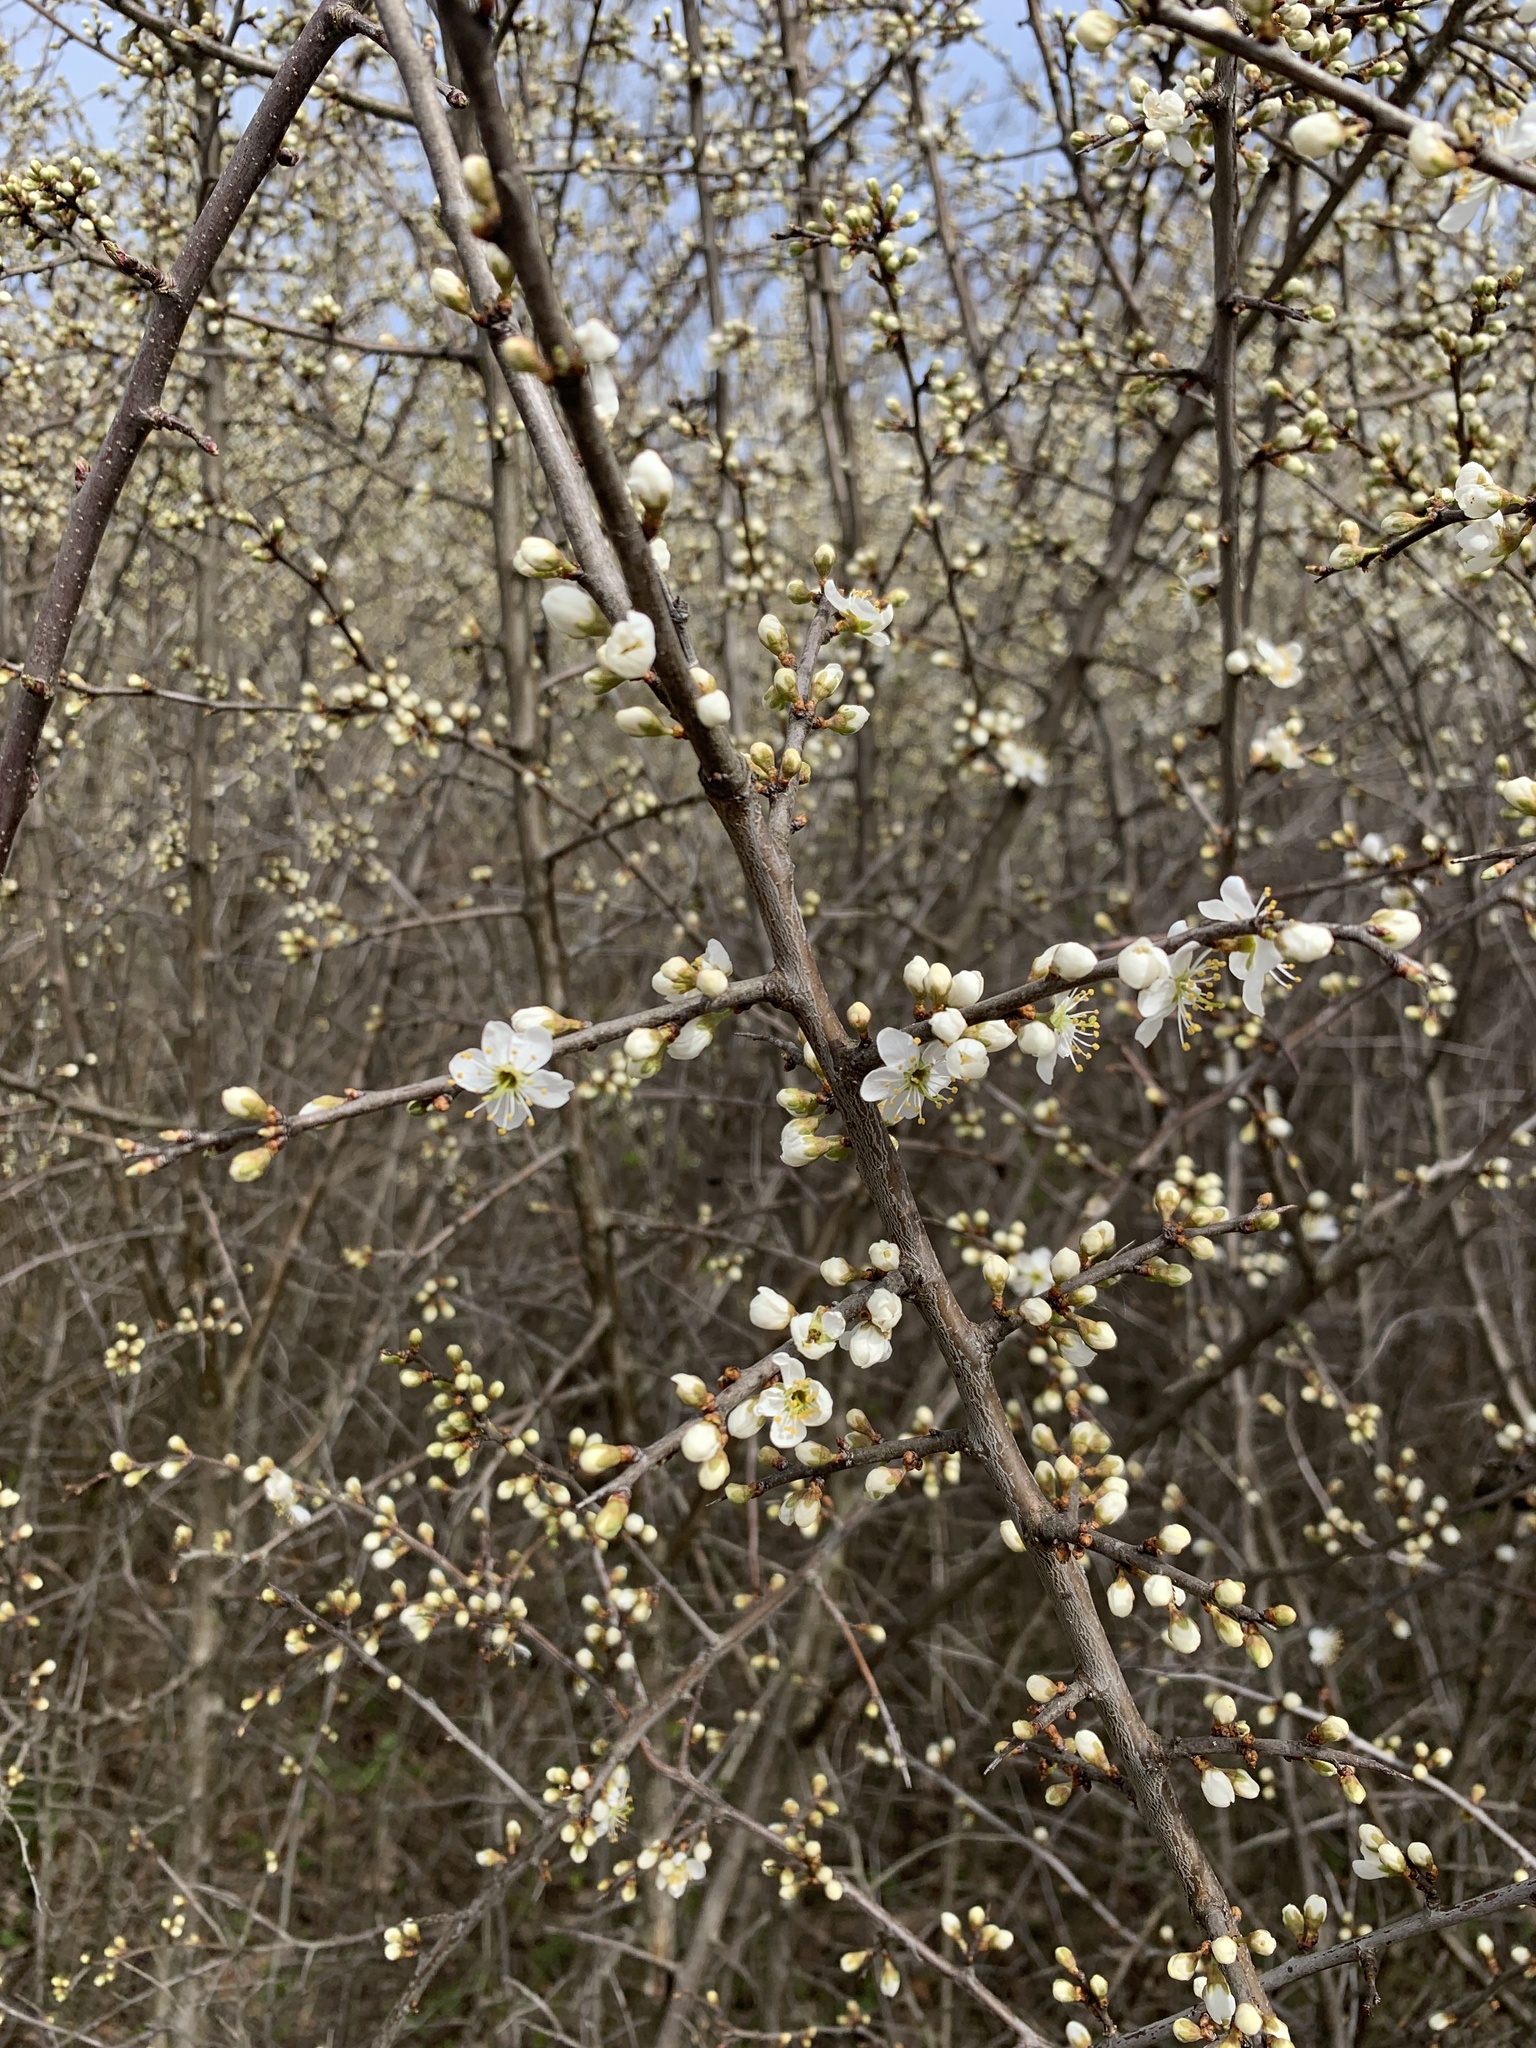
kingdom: Plantae
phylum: Tracheophyta
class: Magnoliopsida
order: Rosales
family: Rosaceae
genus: Prunus
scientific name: Prunus spinosa
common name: Blackthorn
